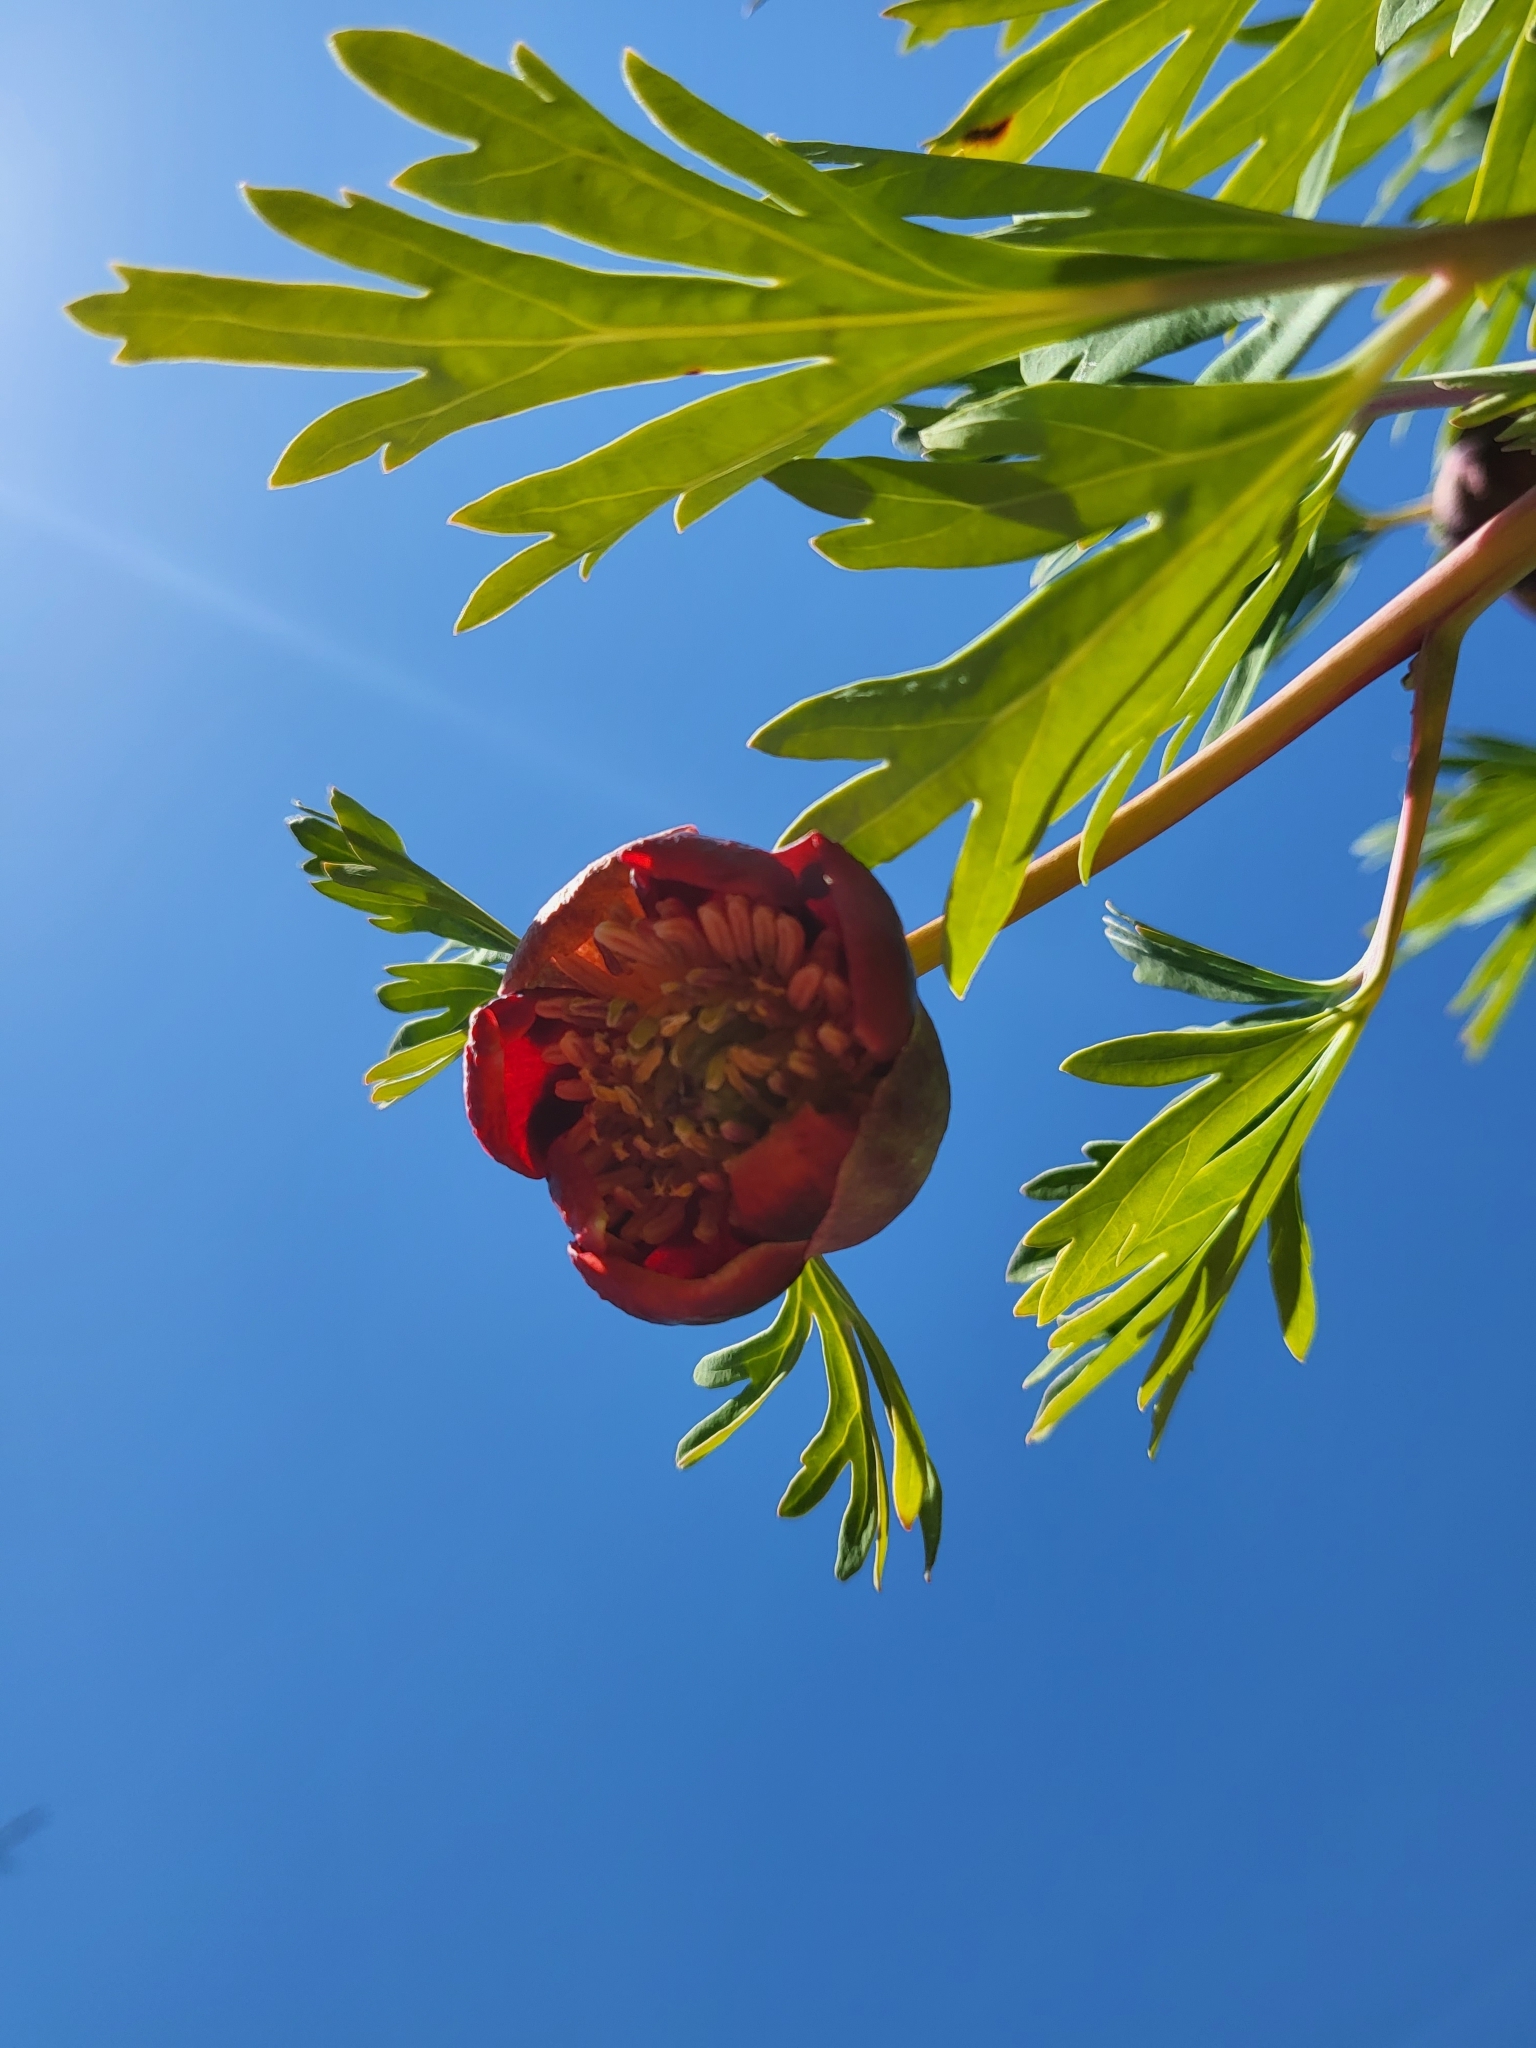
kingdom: Plantae
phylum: Tracheophyta
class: Magnoliopsida
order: Saxifragales
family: Paeoniaceae
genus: Paeonia
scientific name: Paeonia californica
